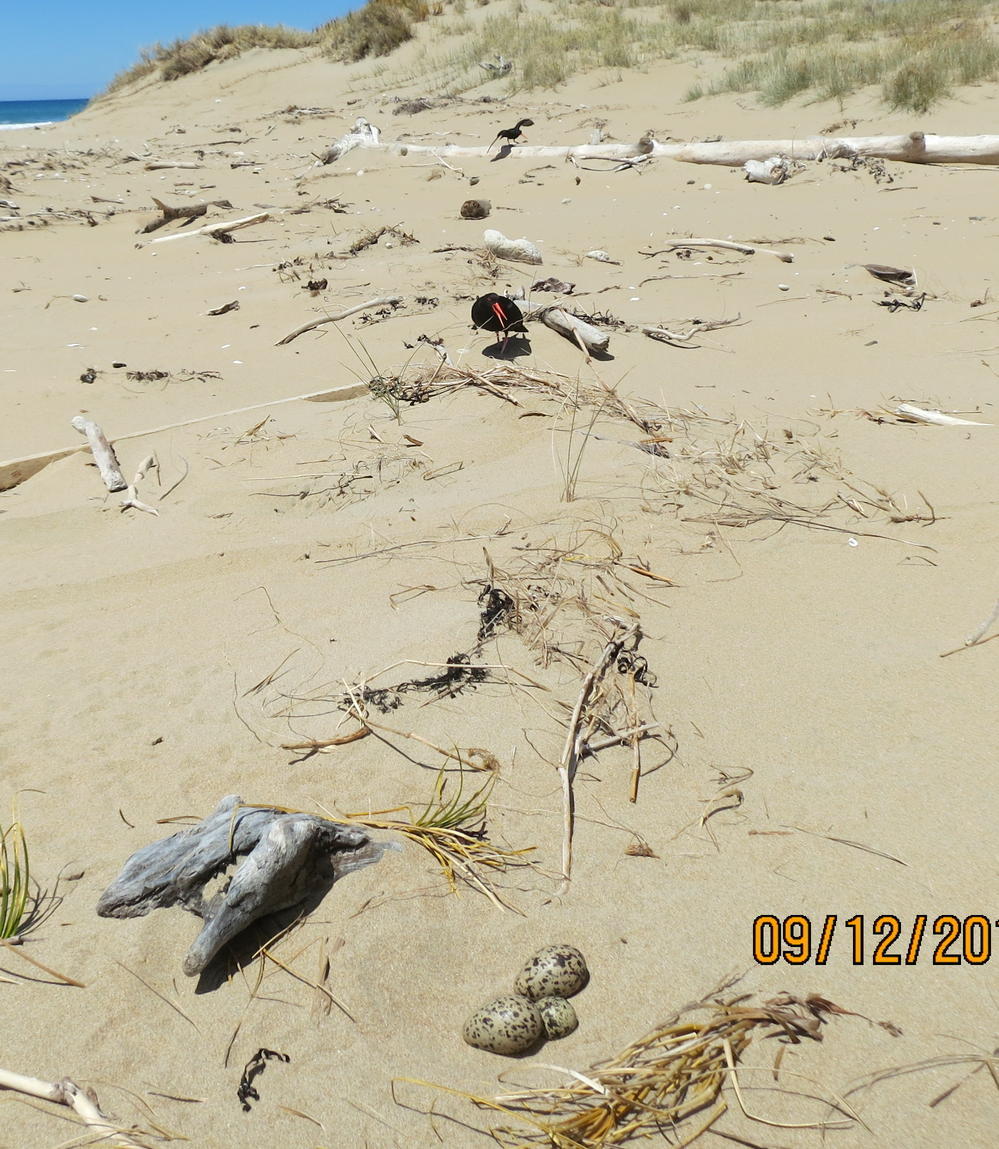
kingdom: Animalia
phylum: Chordata
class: Aves
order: Charadriiformes
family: Haematopodidae
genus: Haematopus
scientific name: Haematopus unicolor
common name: Variable oystercatcher
